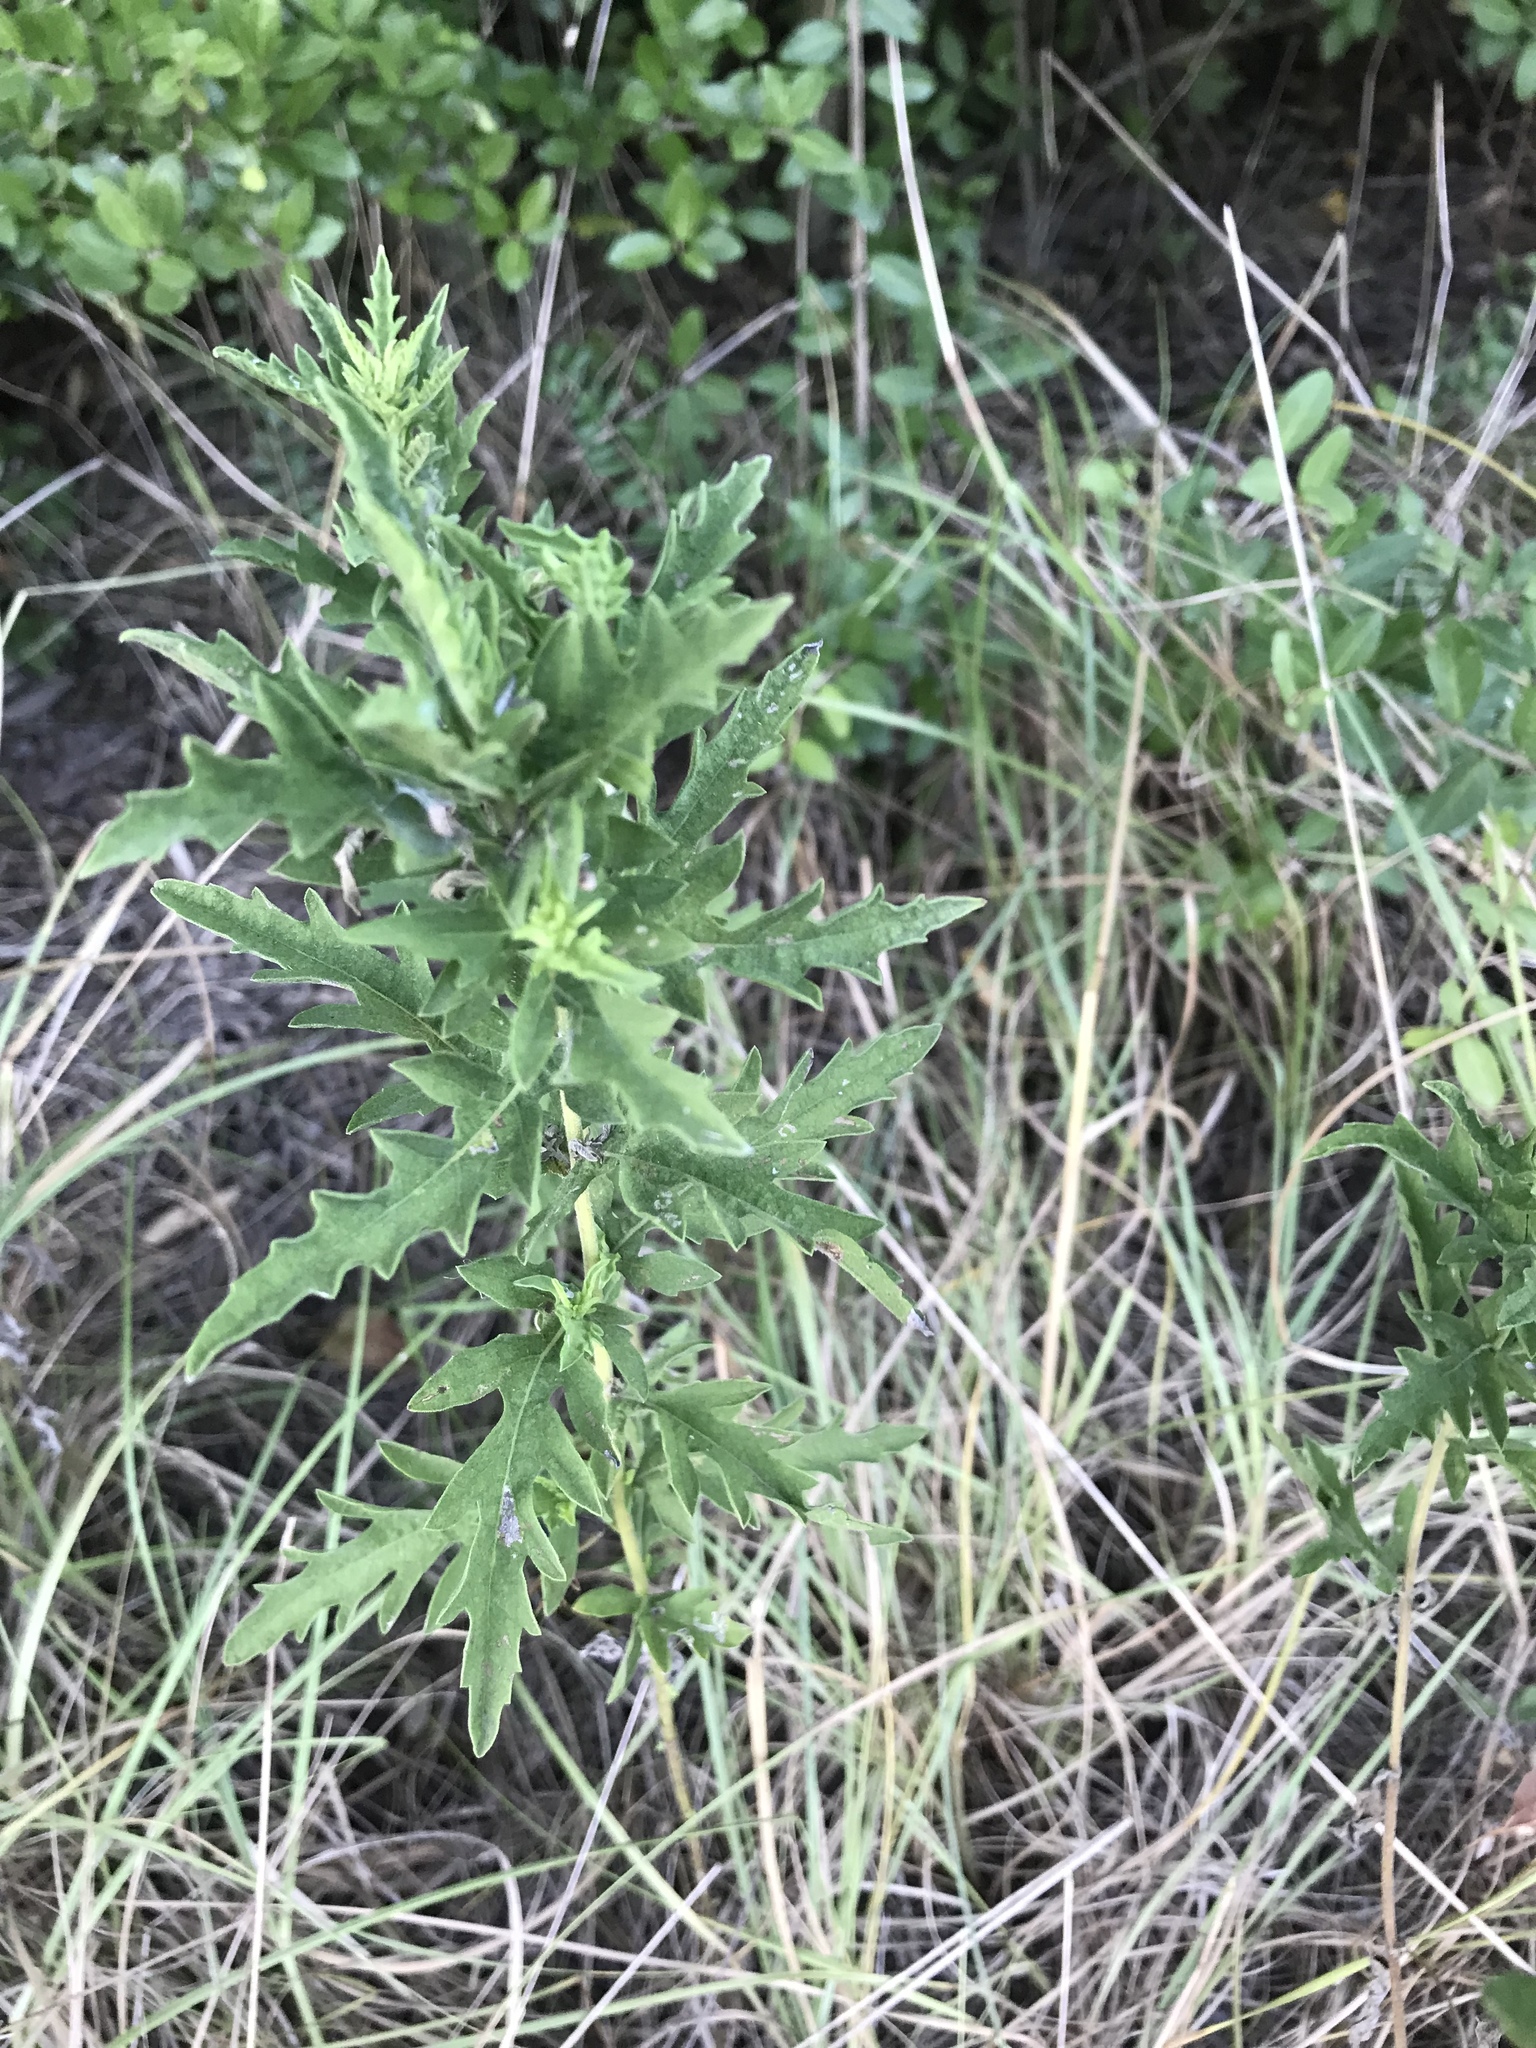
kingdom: Plantae
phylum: Tracheophyta
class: Magnoliopsida
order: Asterales
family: Asteraceae
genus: Ambrosia
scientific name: Ambrosia psilostachya
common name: Perennial ragweed
